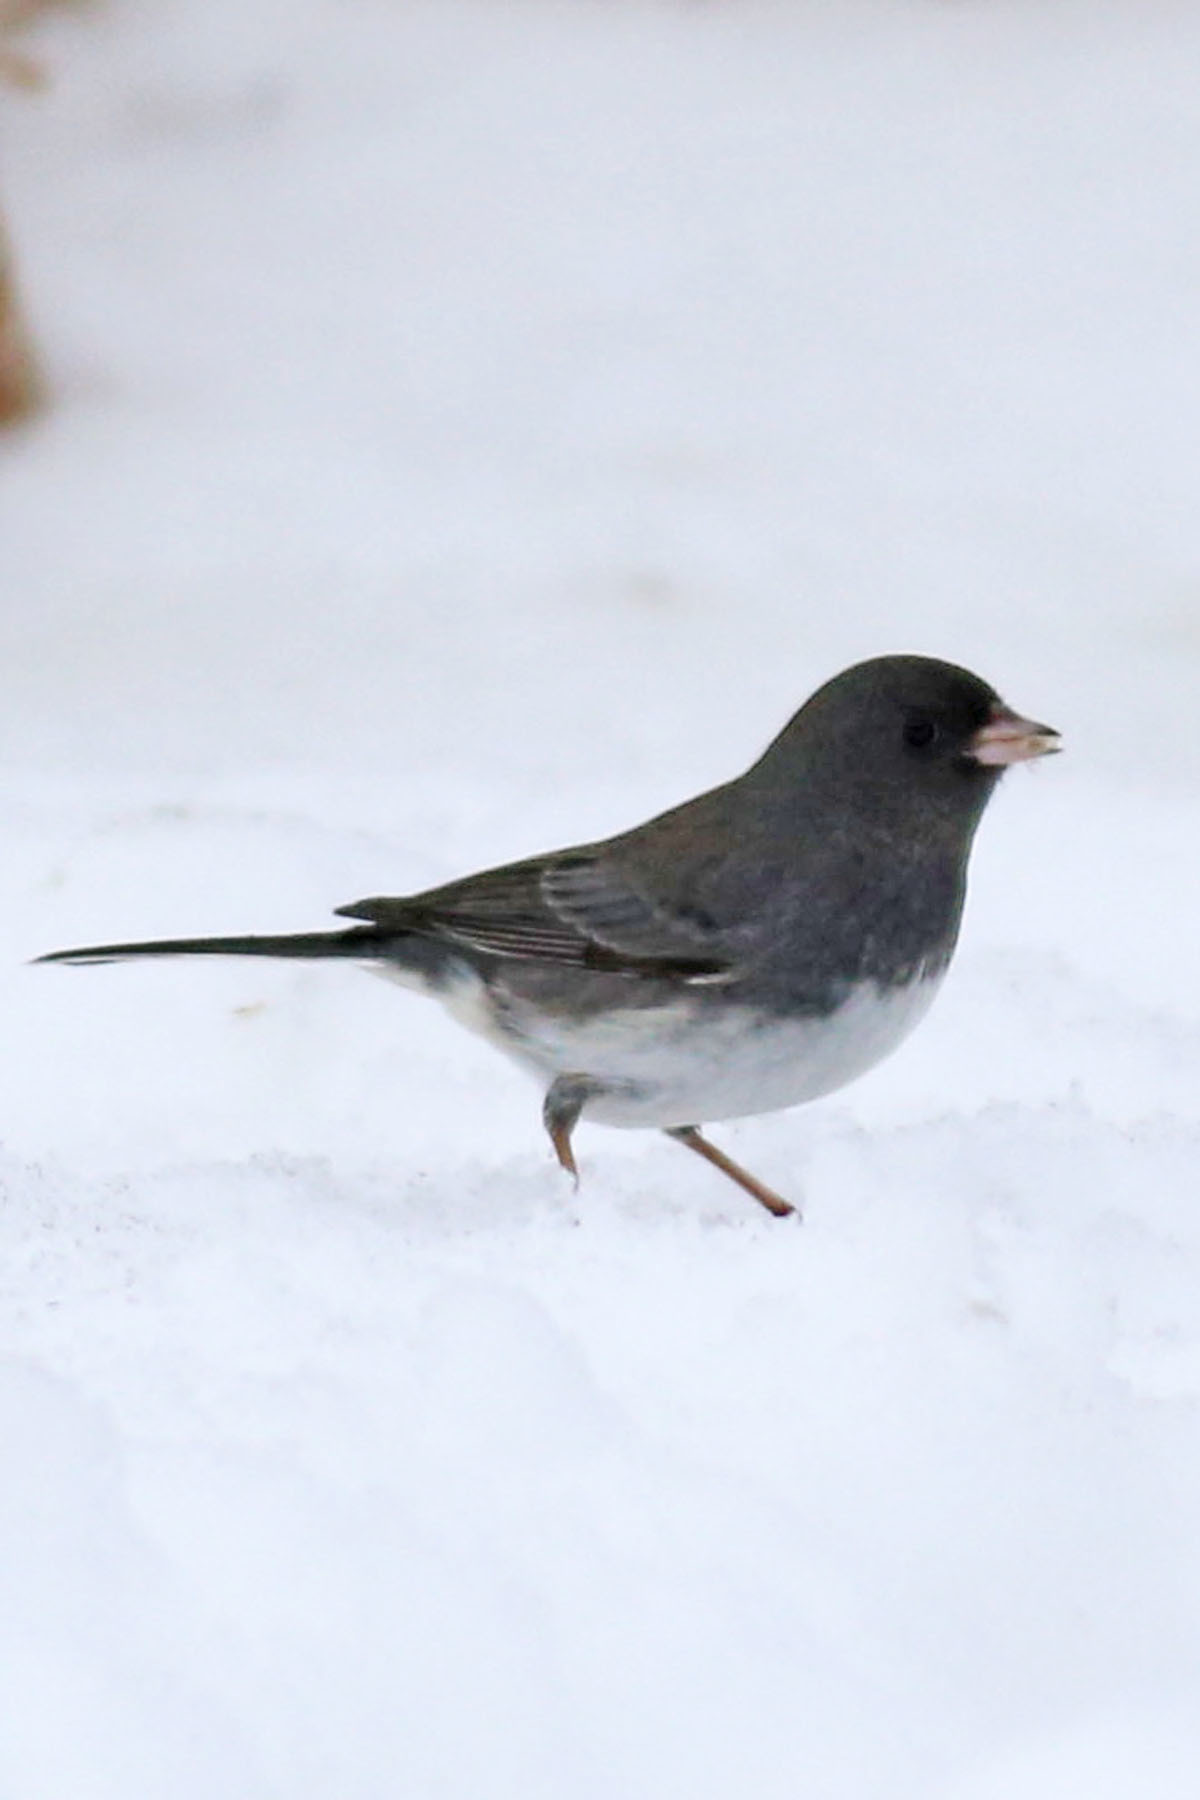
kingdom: Animalia
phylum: Chordata
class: Aves
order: Passeriformes
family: Passerellidae
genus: Junco
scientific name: Junco hyemalis
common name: Dark-eyed junco
